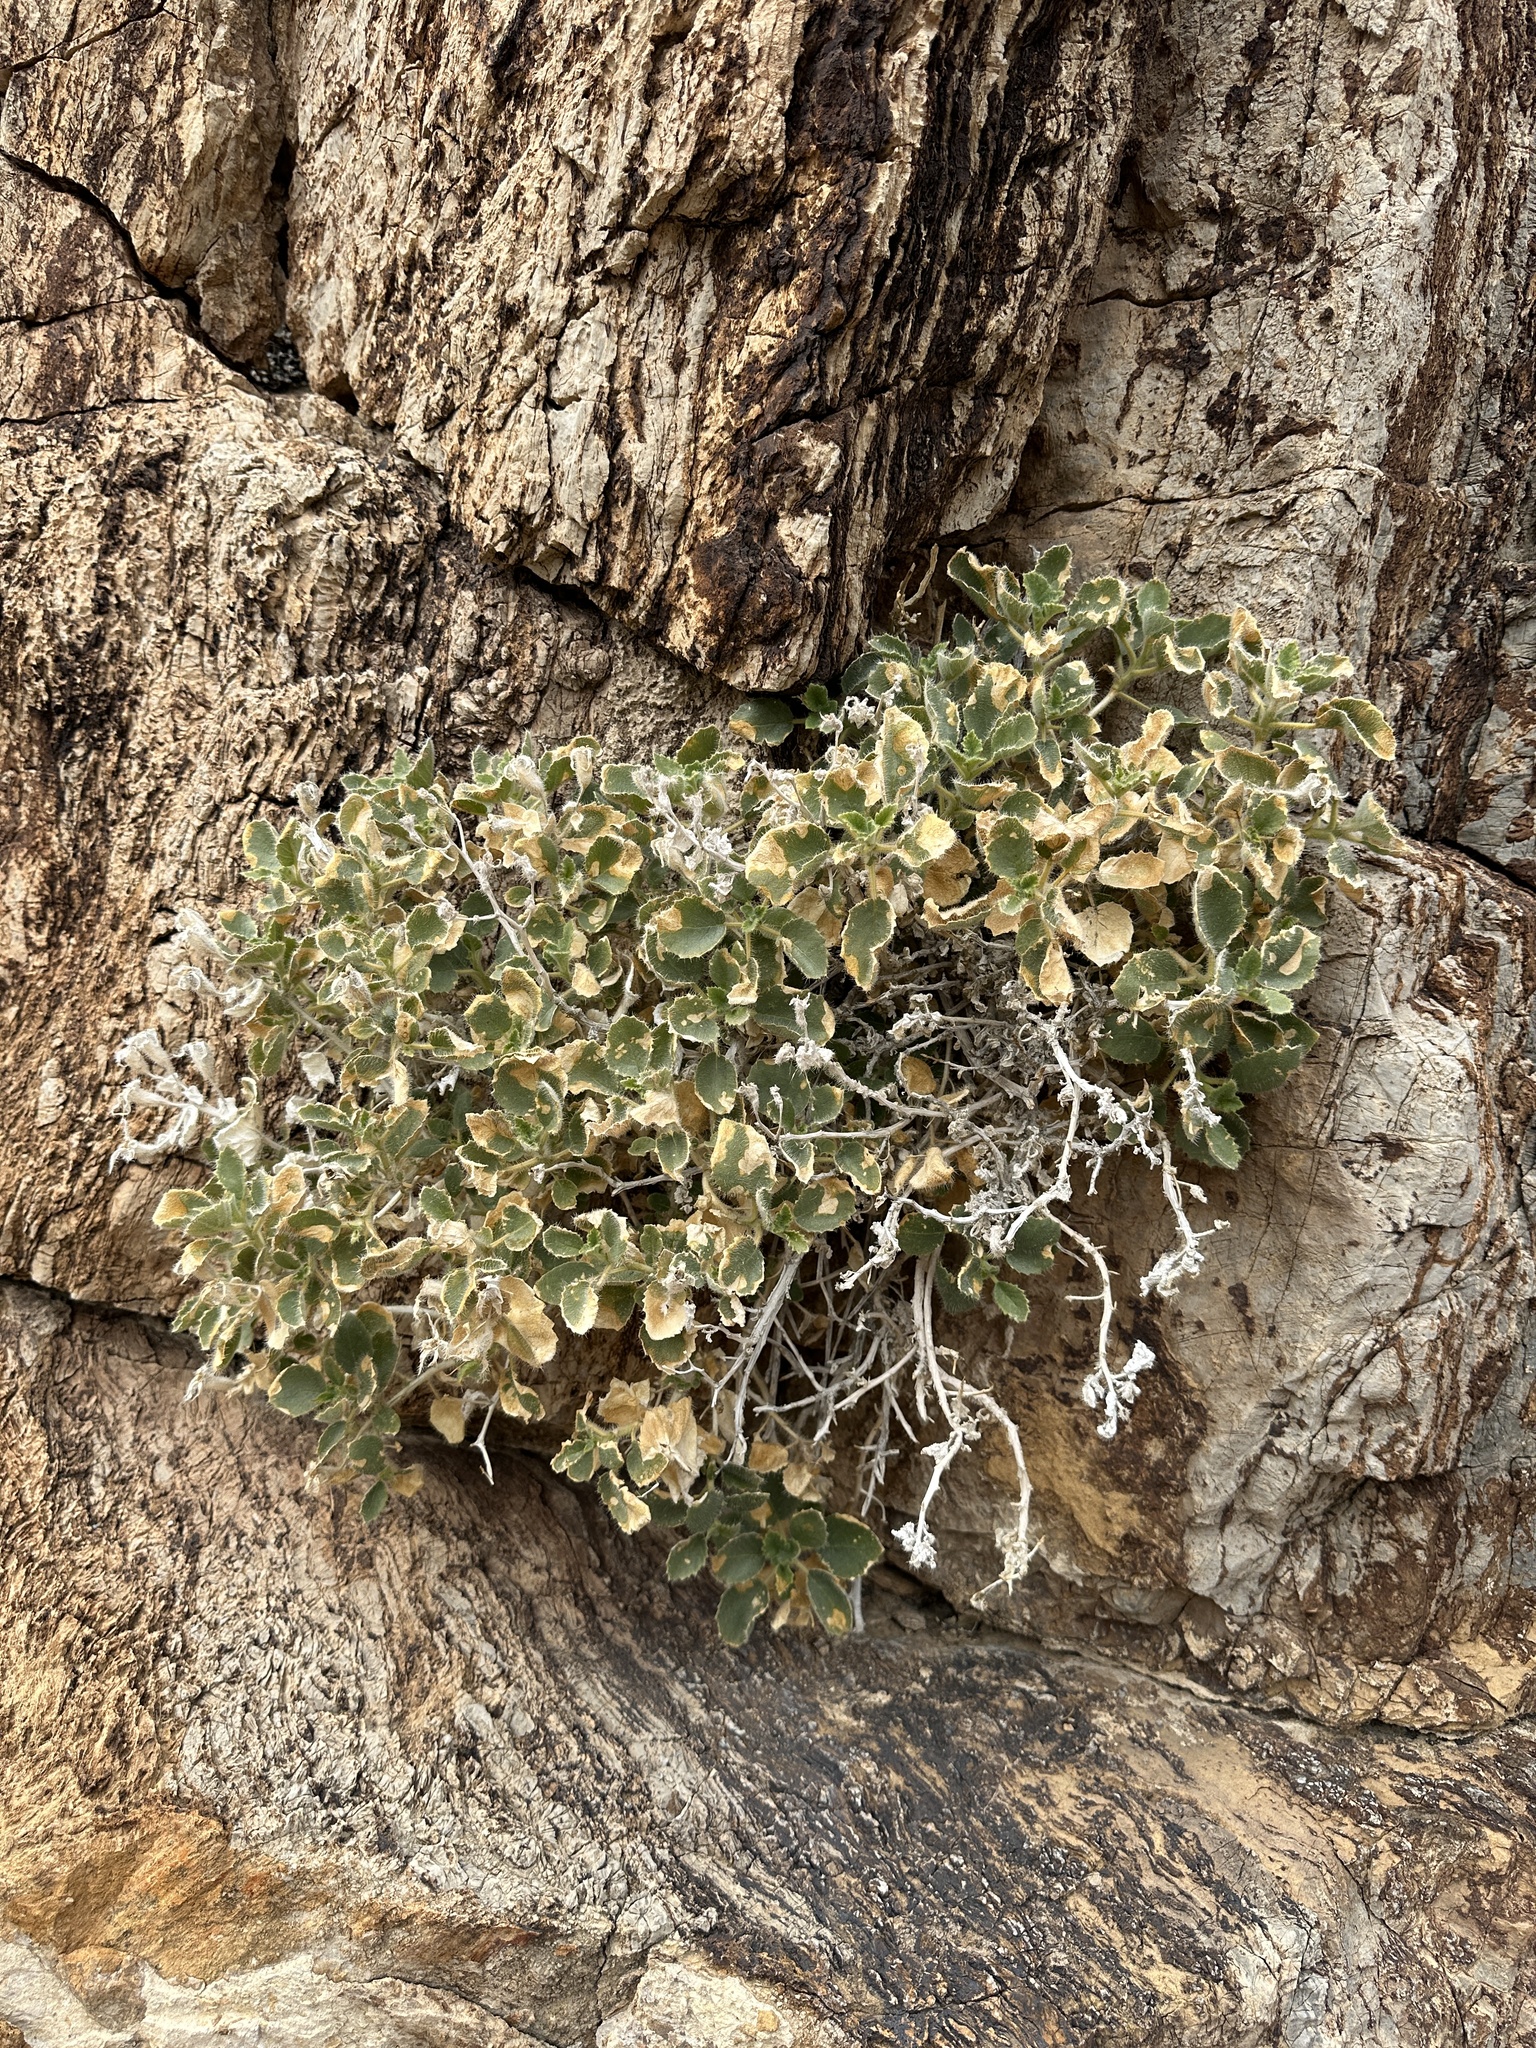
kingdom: Plantae
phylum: Tracheophyta
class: Magnoliopsida
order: Cornales
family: Loasaceae
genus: Eucnide
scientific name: Eucnide urens
